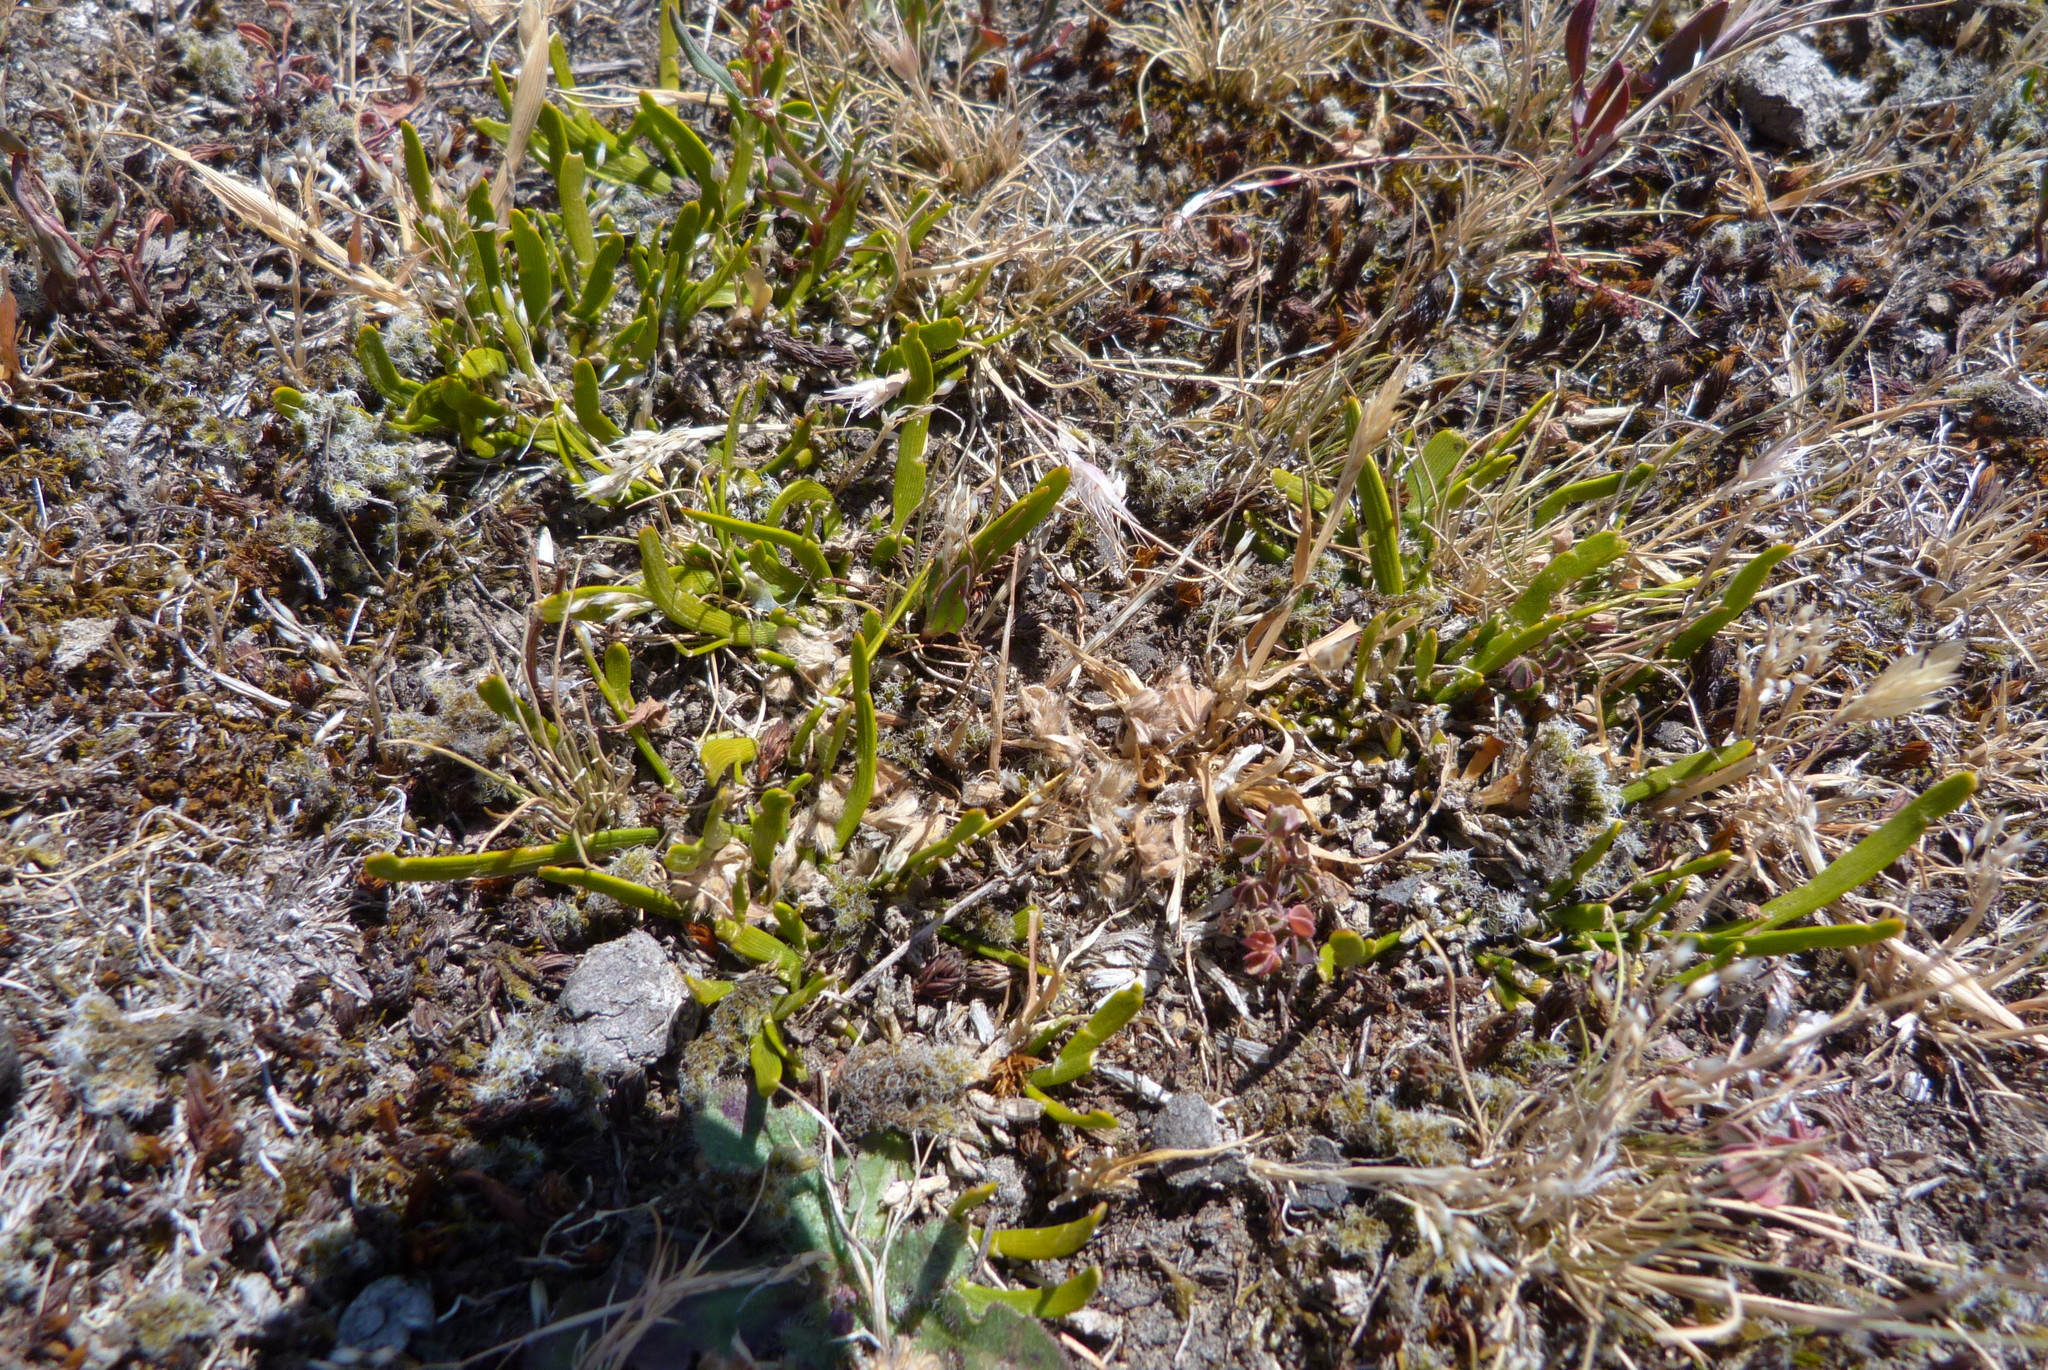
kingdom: Plantae
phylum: Tracheophyta
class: Magnoliopsida
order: Fabales
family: Fabaceae
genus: Carmichaelia
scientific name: Carmichaelia corrugata
